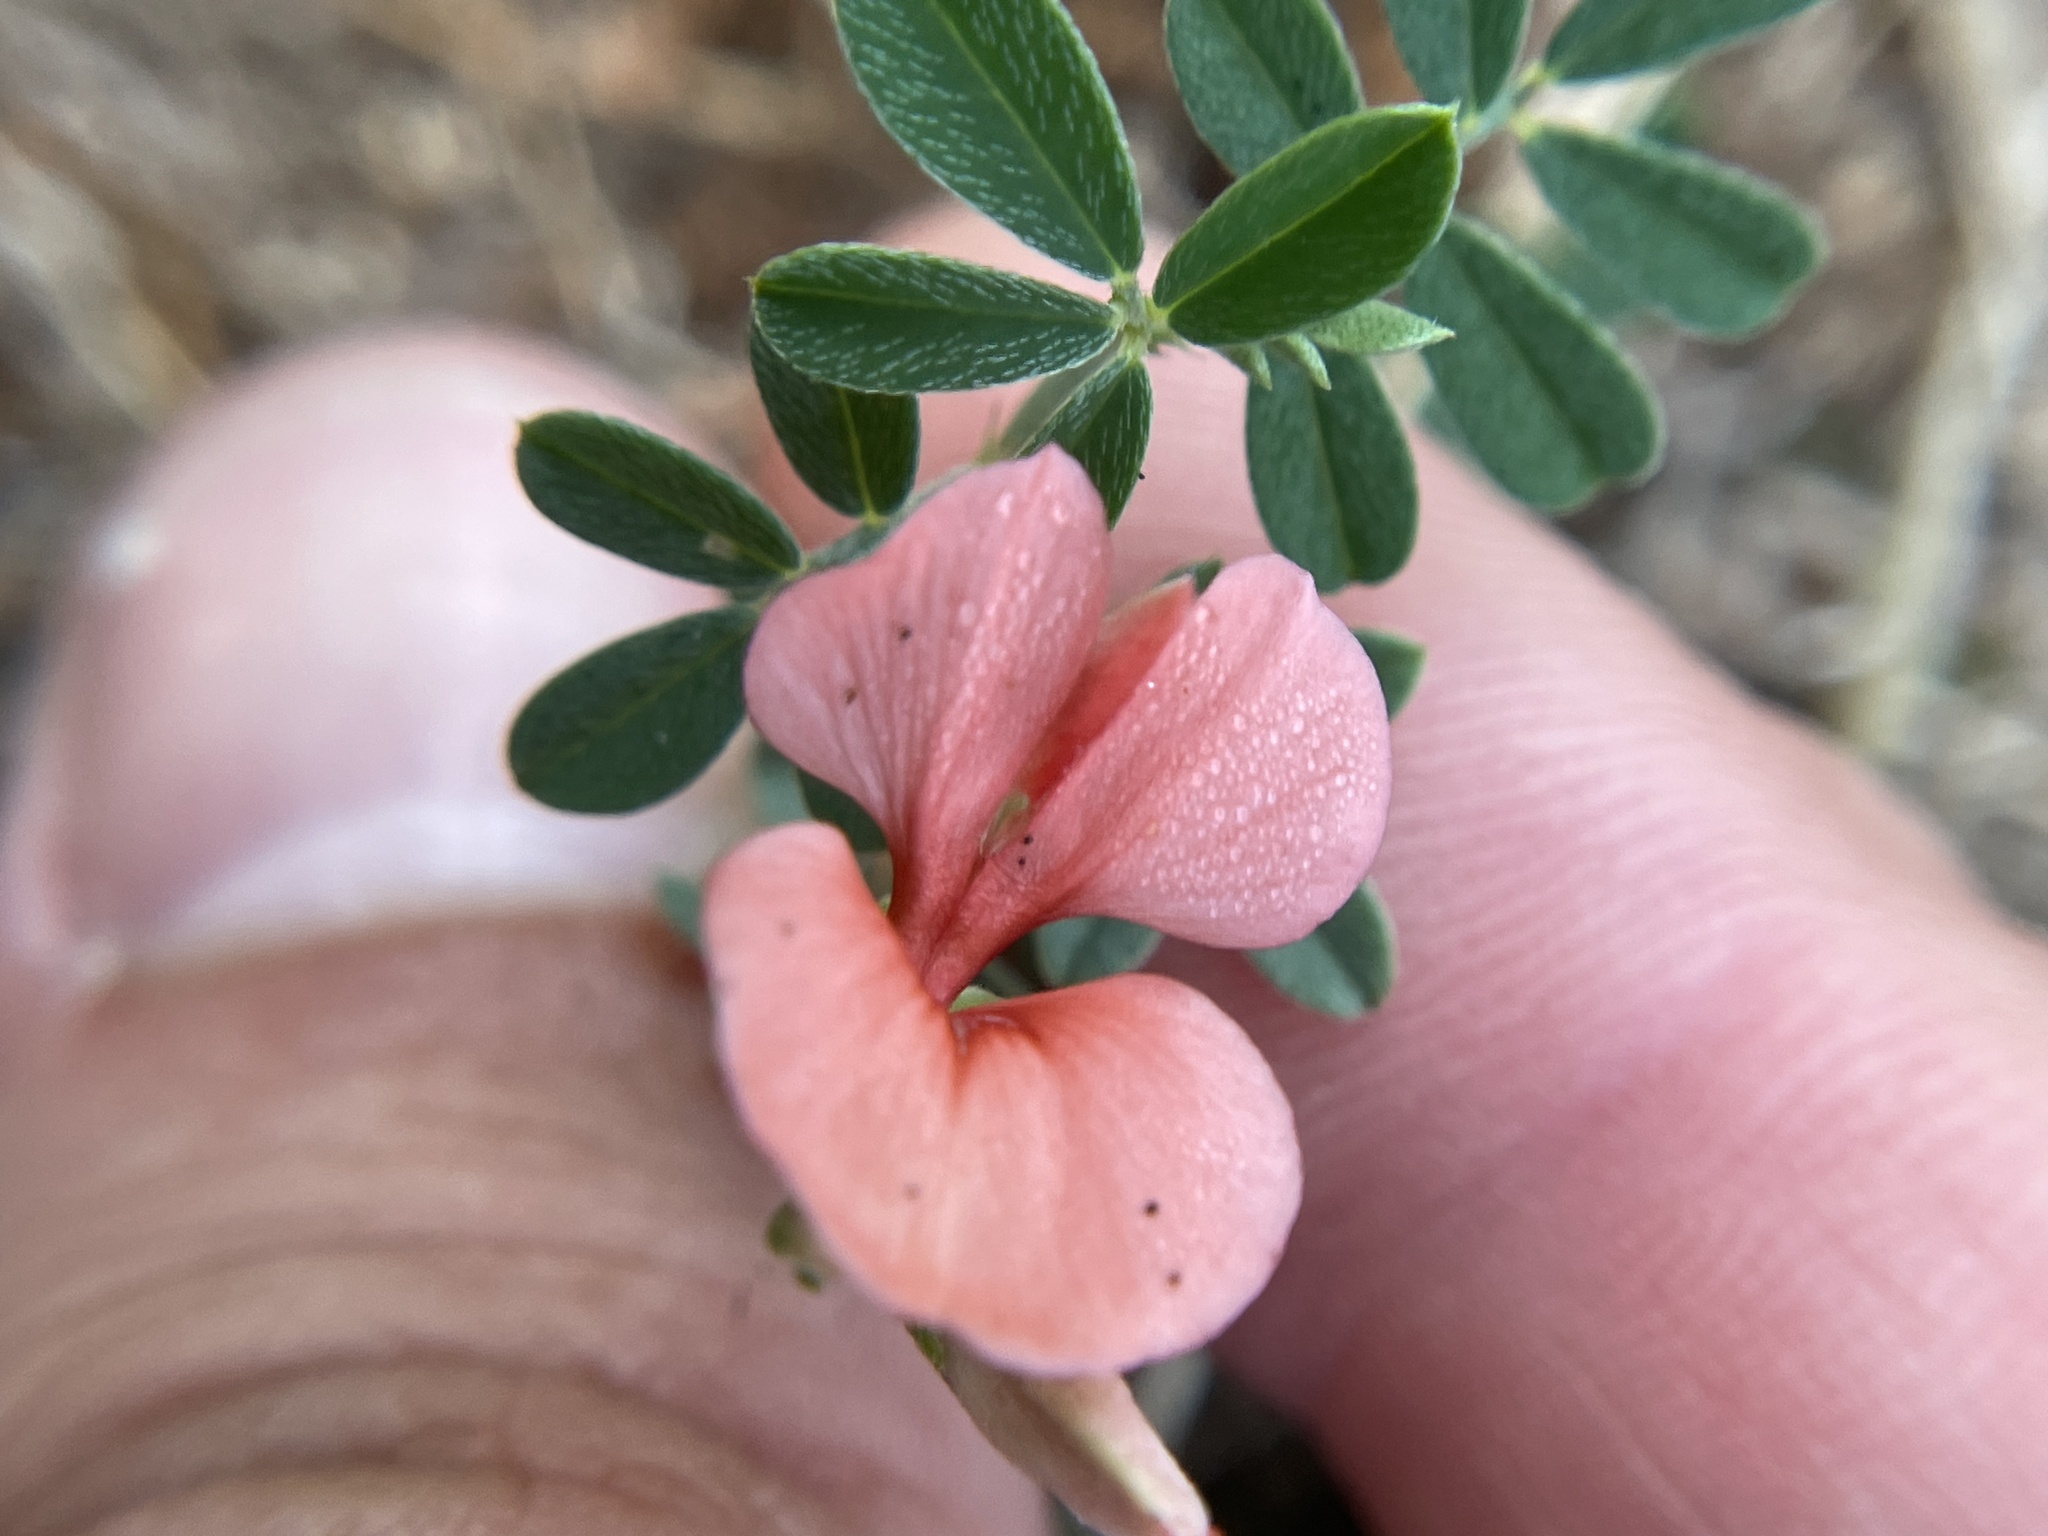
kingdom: Plantae
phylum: Tracheophyta
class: Magnoliopsida
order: Fabales
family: Fabaceae
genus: Indigofera
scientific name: Indigofera miniata
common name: Coast indigo
